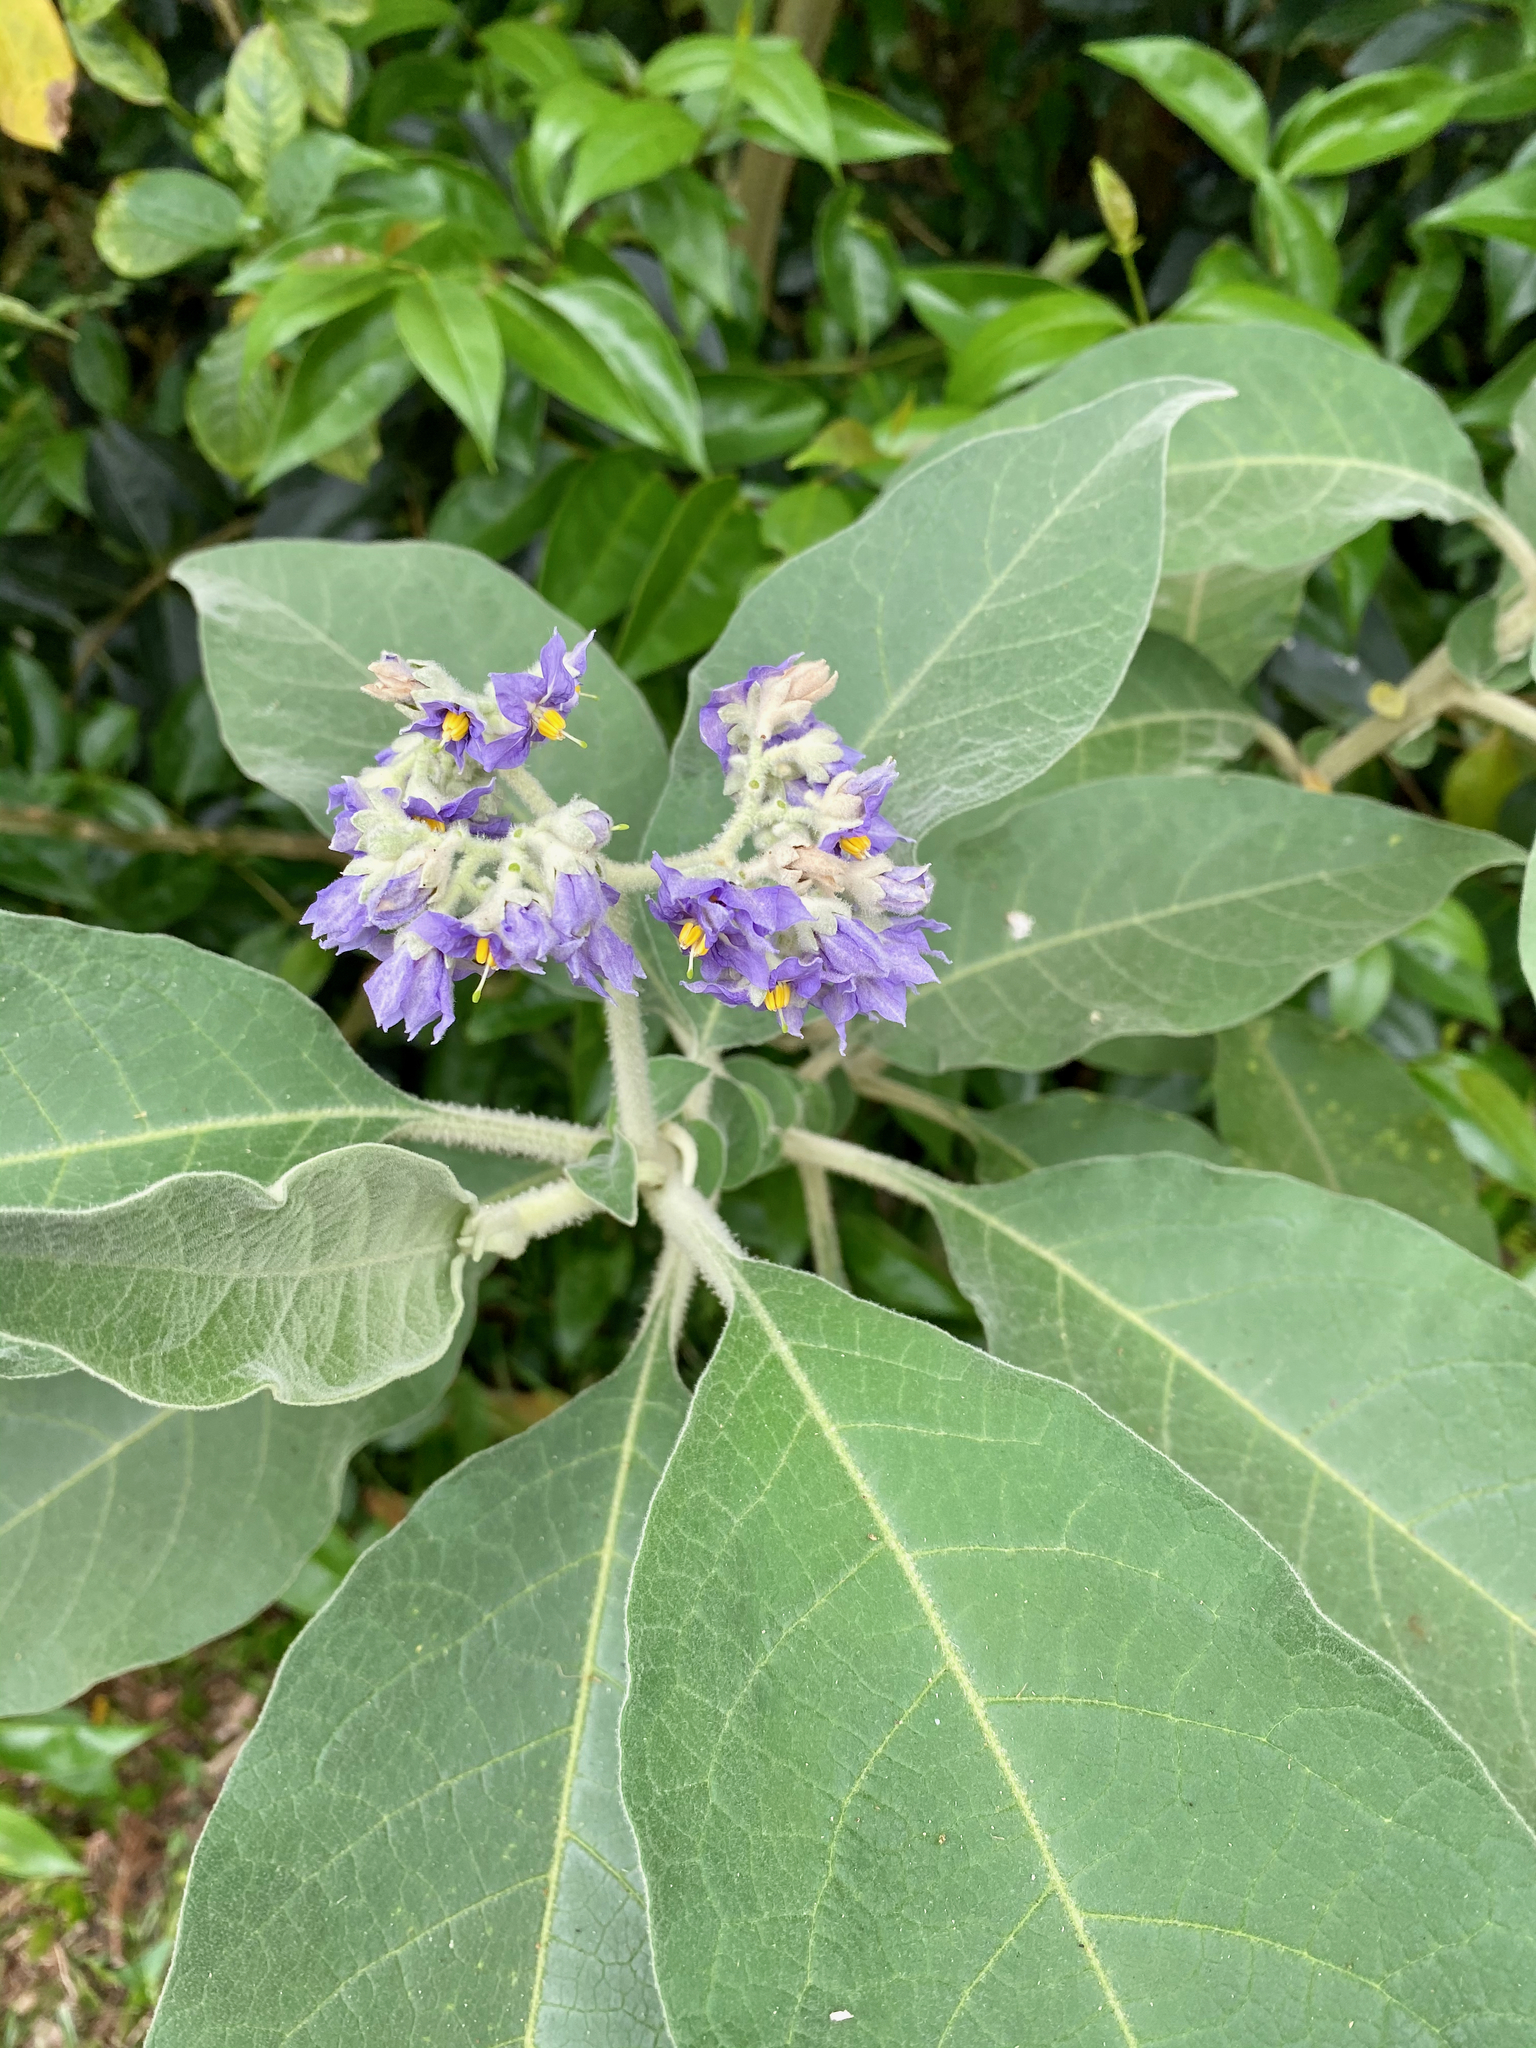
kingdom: Plantae
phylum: Tracheophyta
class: Magnoliopsida
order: Solanales
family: Solanaceae
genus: Solanum
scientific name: Solanum mauritianum
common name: Earleaf nightshade
